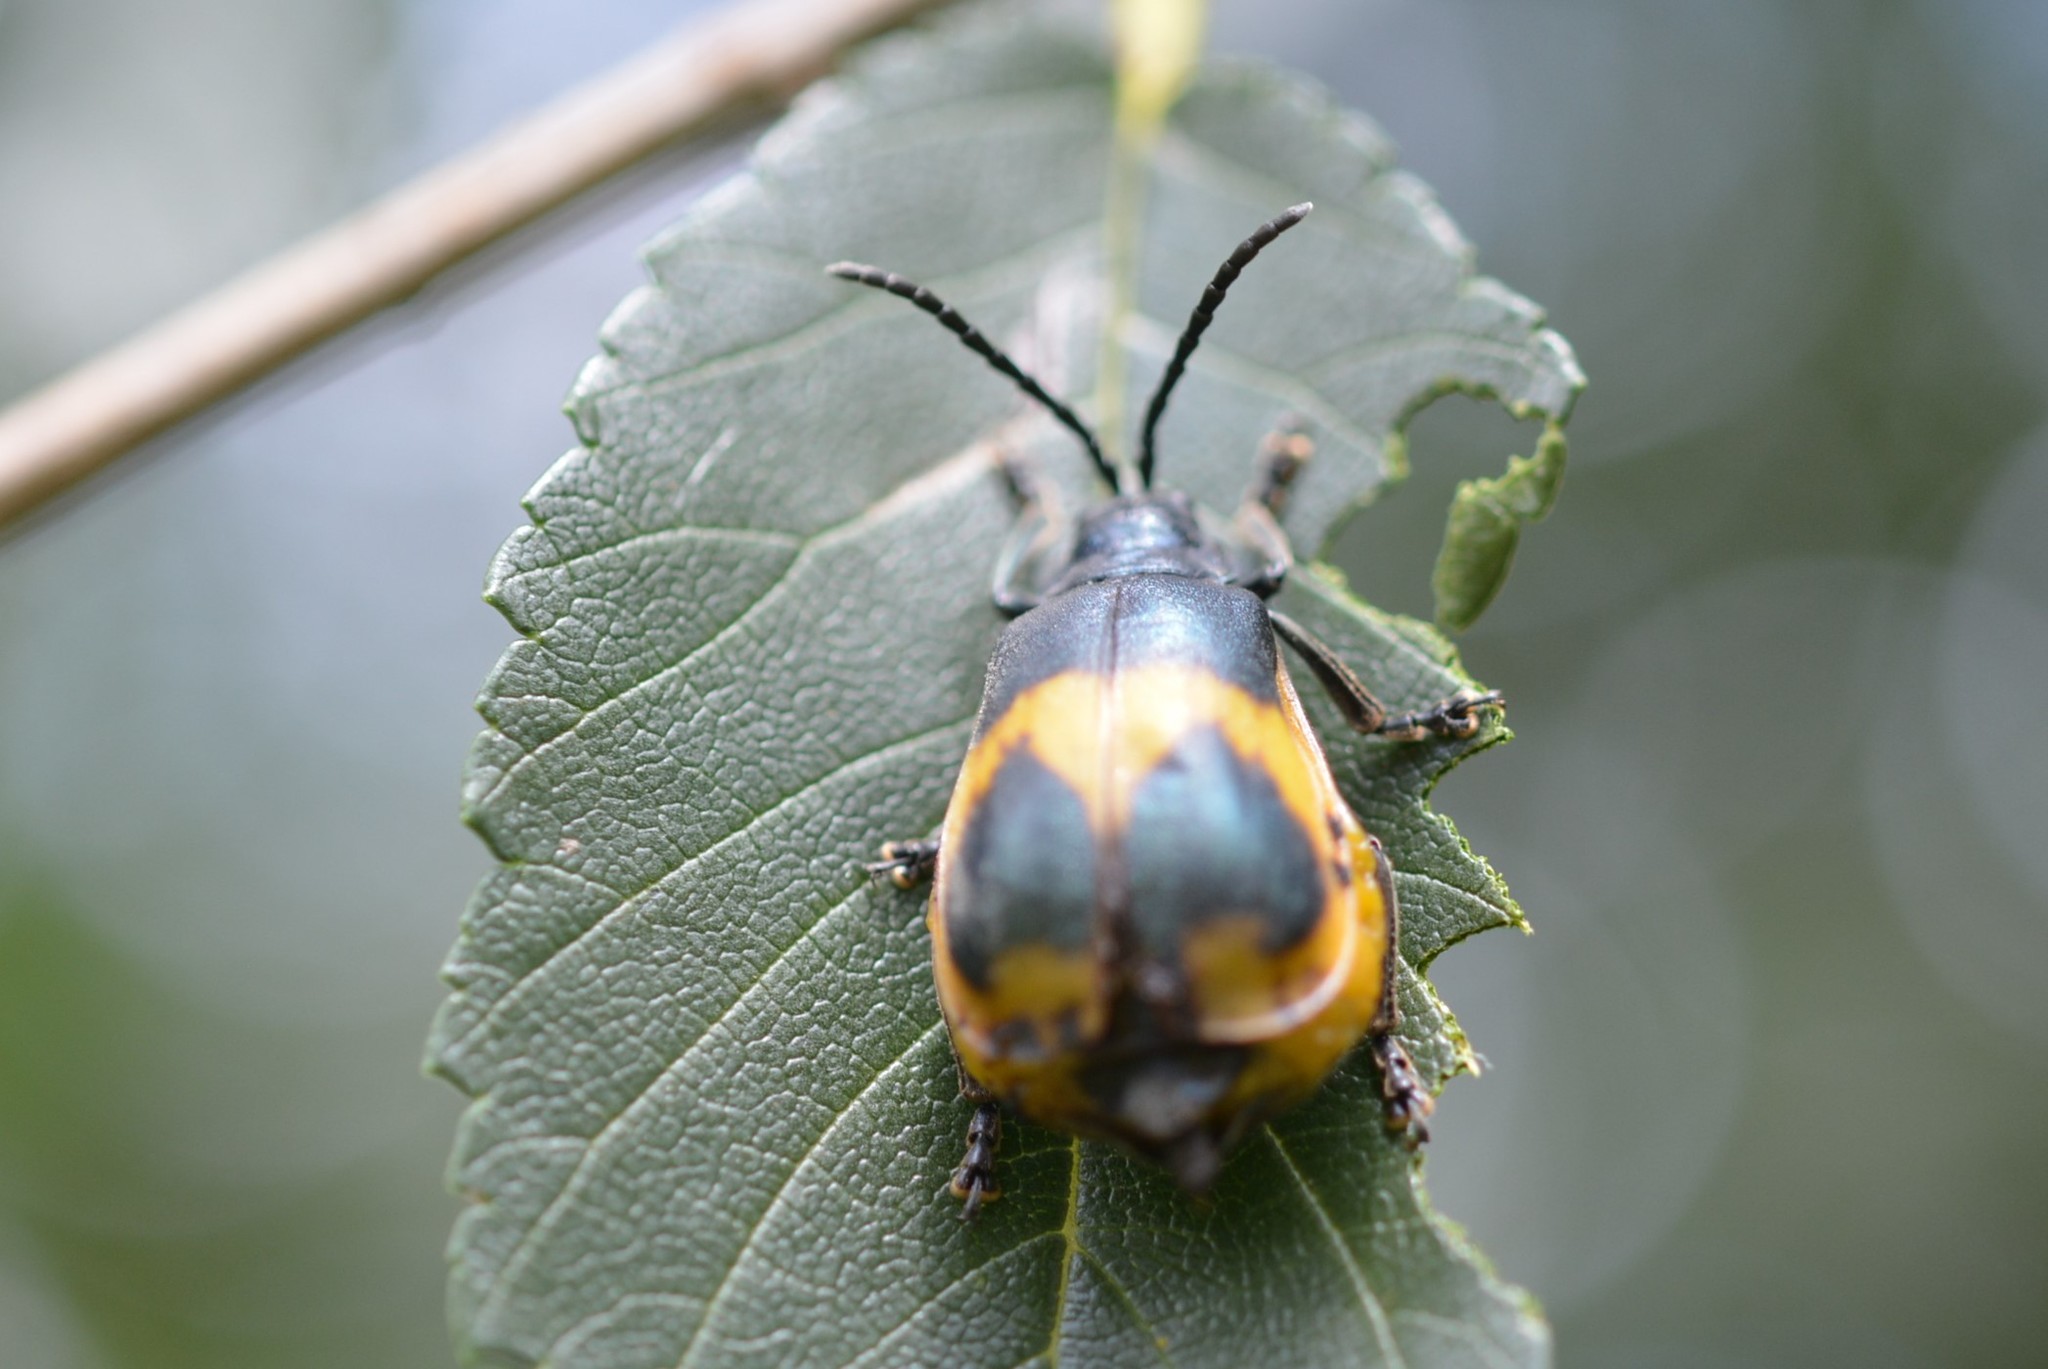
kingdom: Animalia
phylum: Arthropoda
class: Insecta
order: Coleoptera
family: Chrysomelidae
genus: Monocesta
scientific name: Monocesta
